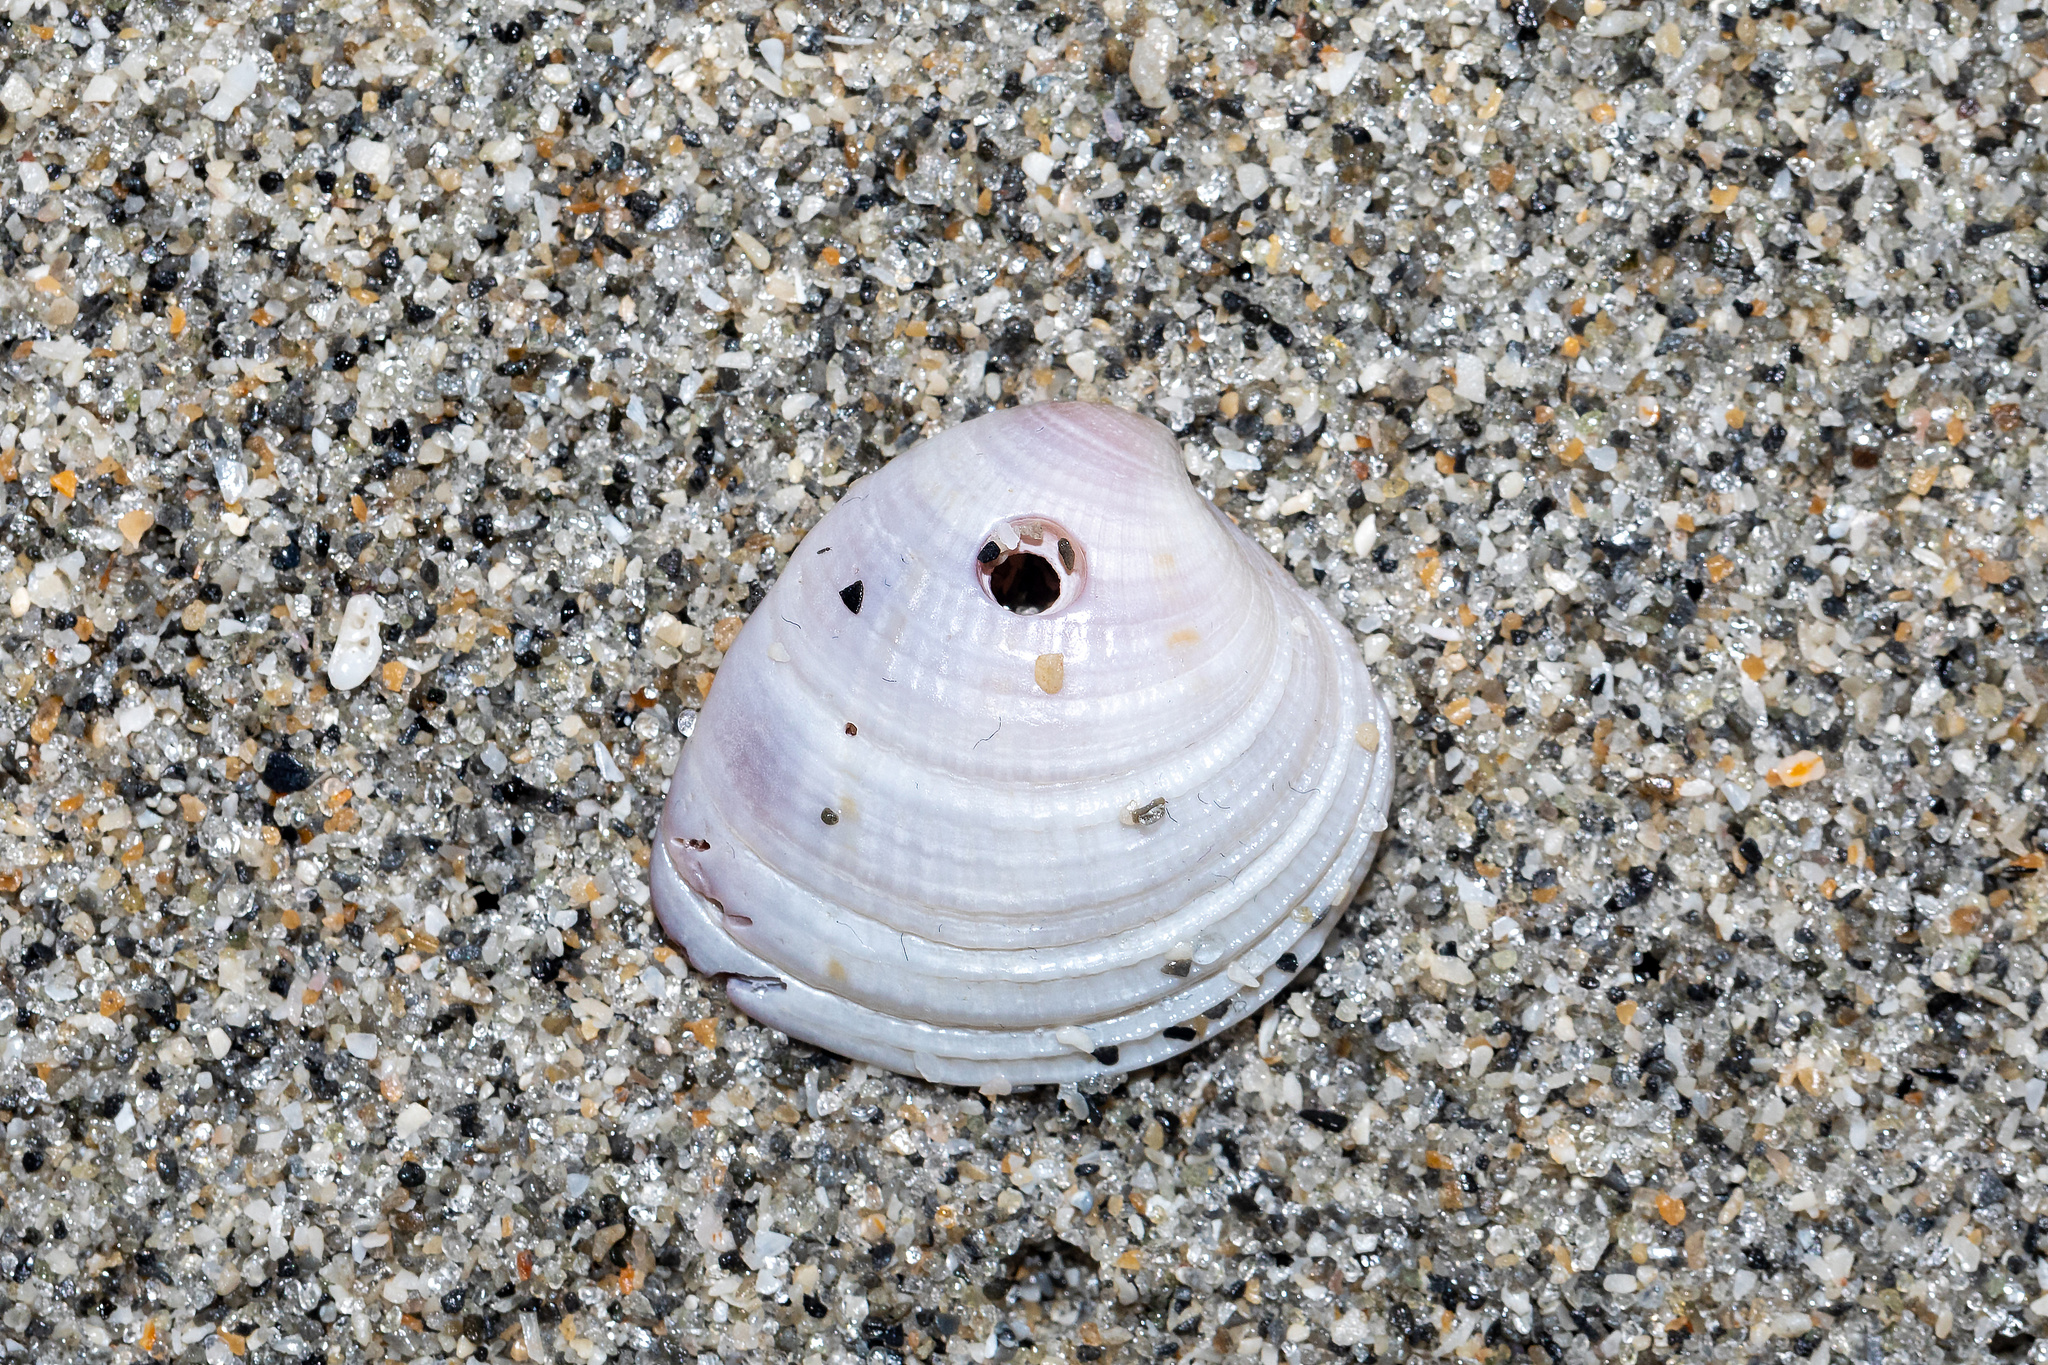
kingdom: Animalia
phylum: Mollusca
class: Bivalvia
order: Venerida
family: Veneridae
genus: Chione
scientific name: Chione elevata
